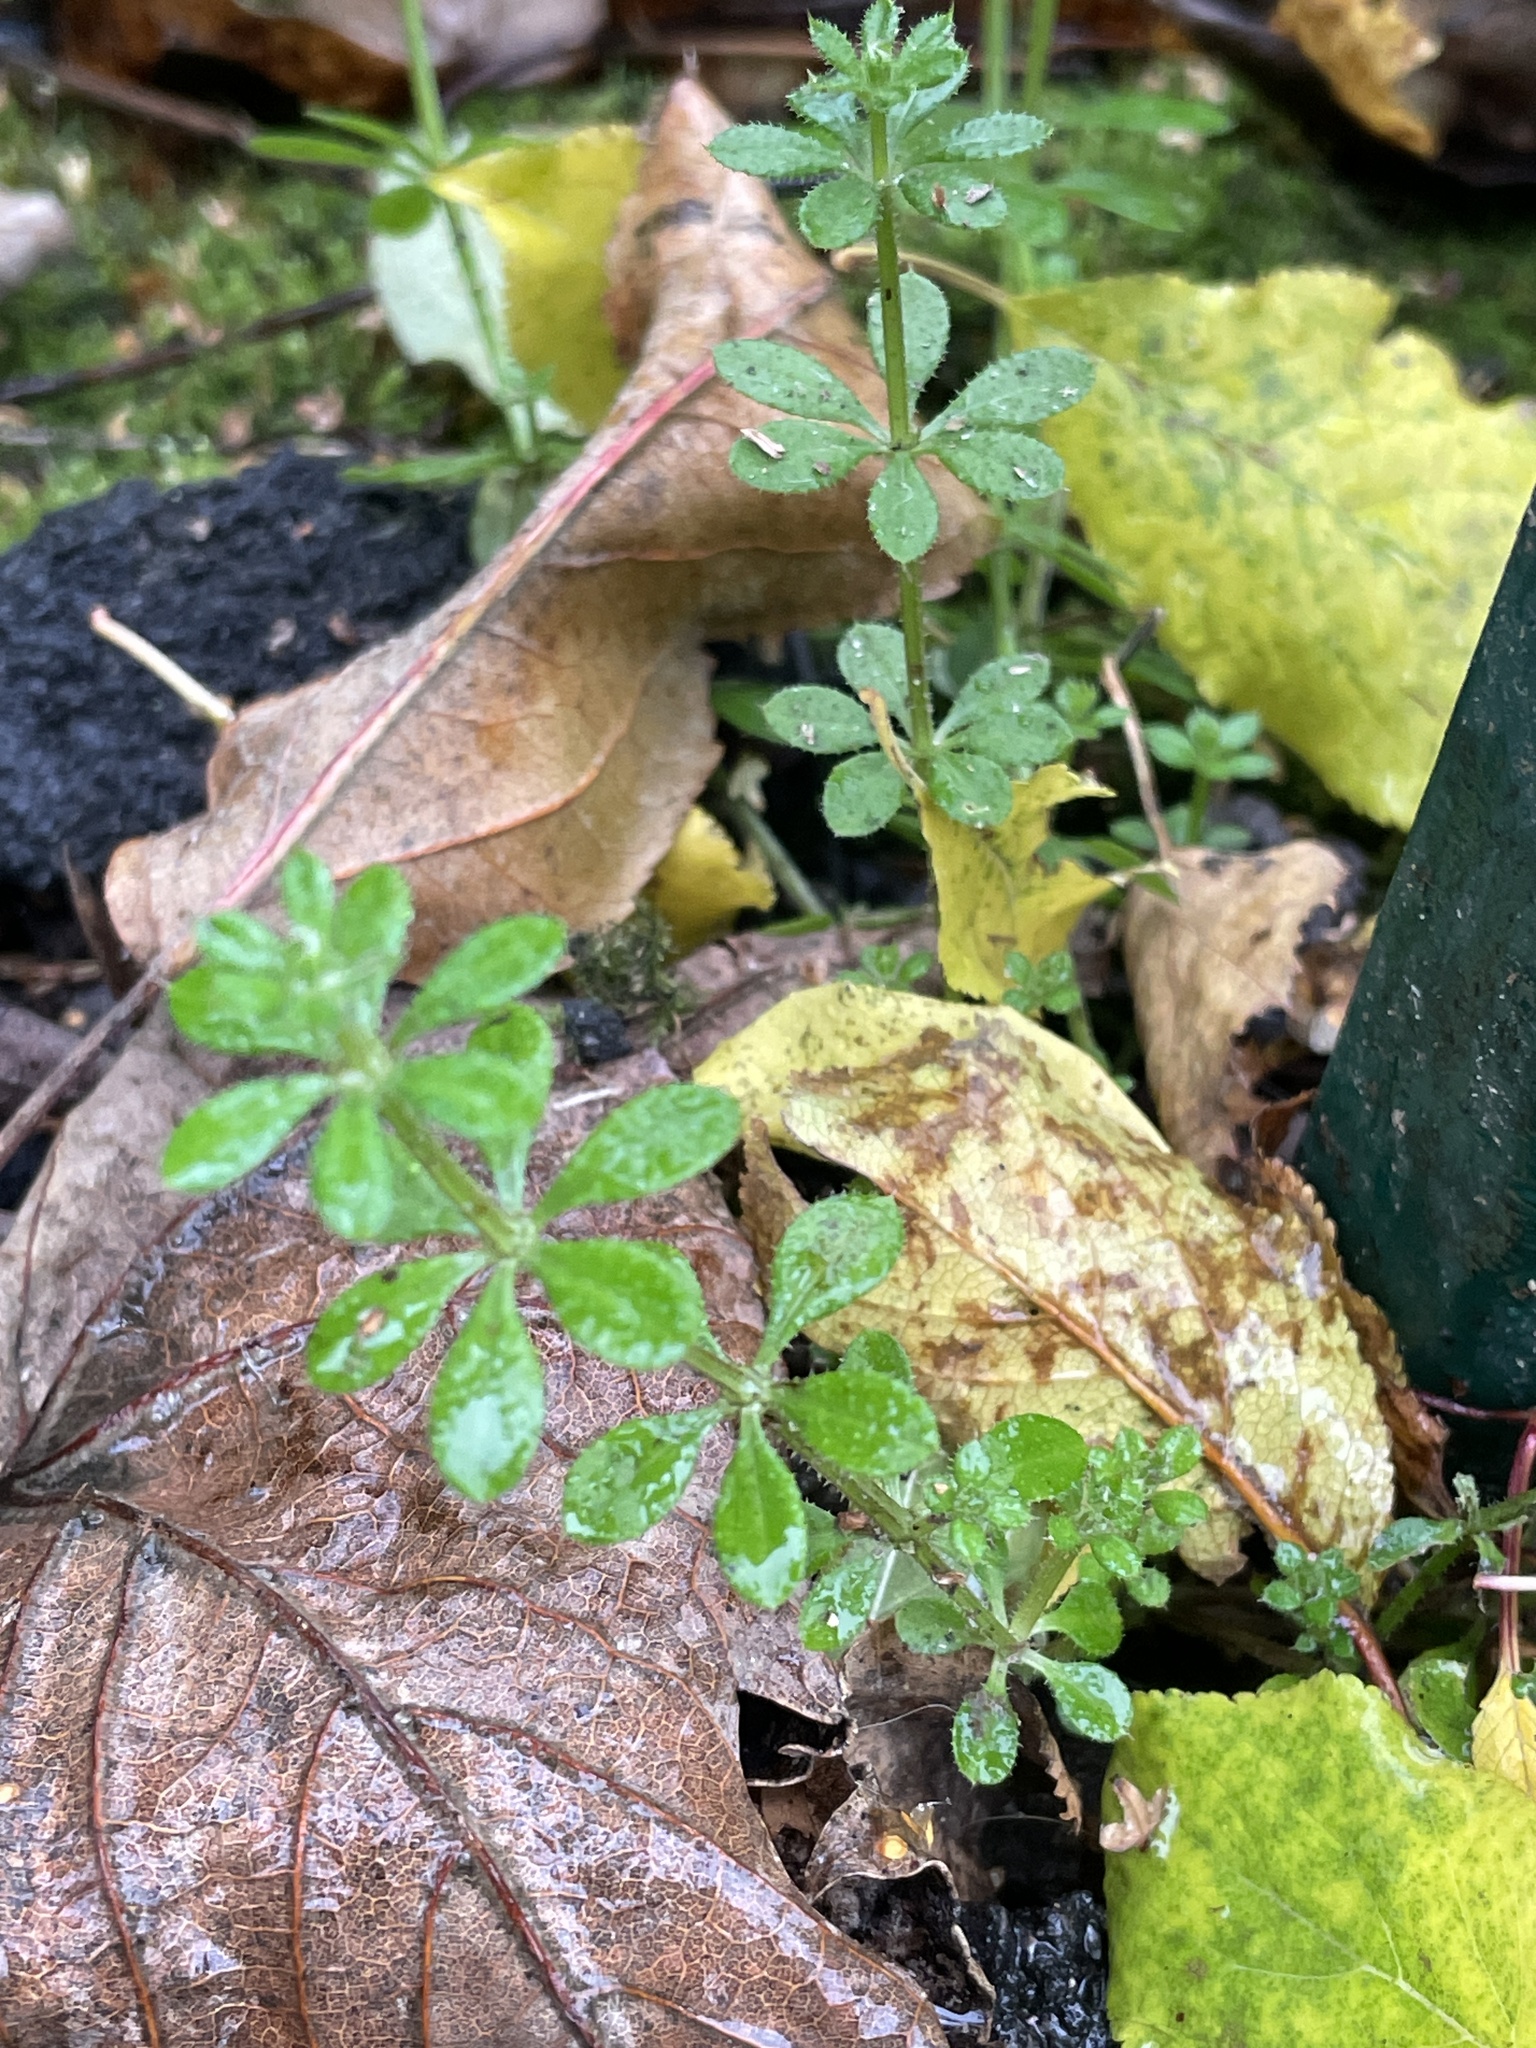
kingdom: Plantae
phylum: Tracheophyta
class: Magnoliopsida
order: Gentianales
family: Rubiaceae
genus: Galium
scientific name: Galium aparine
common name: Cleavers
